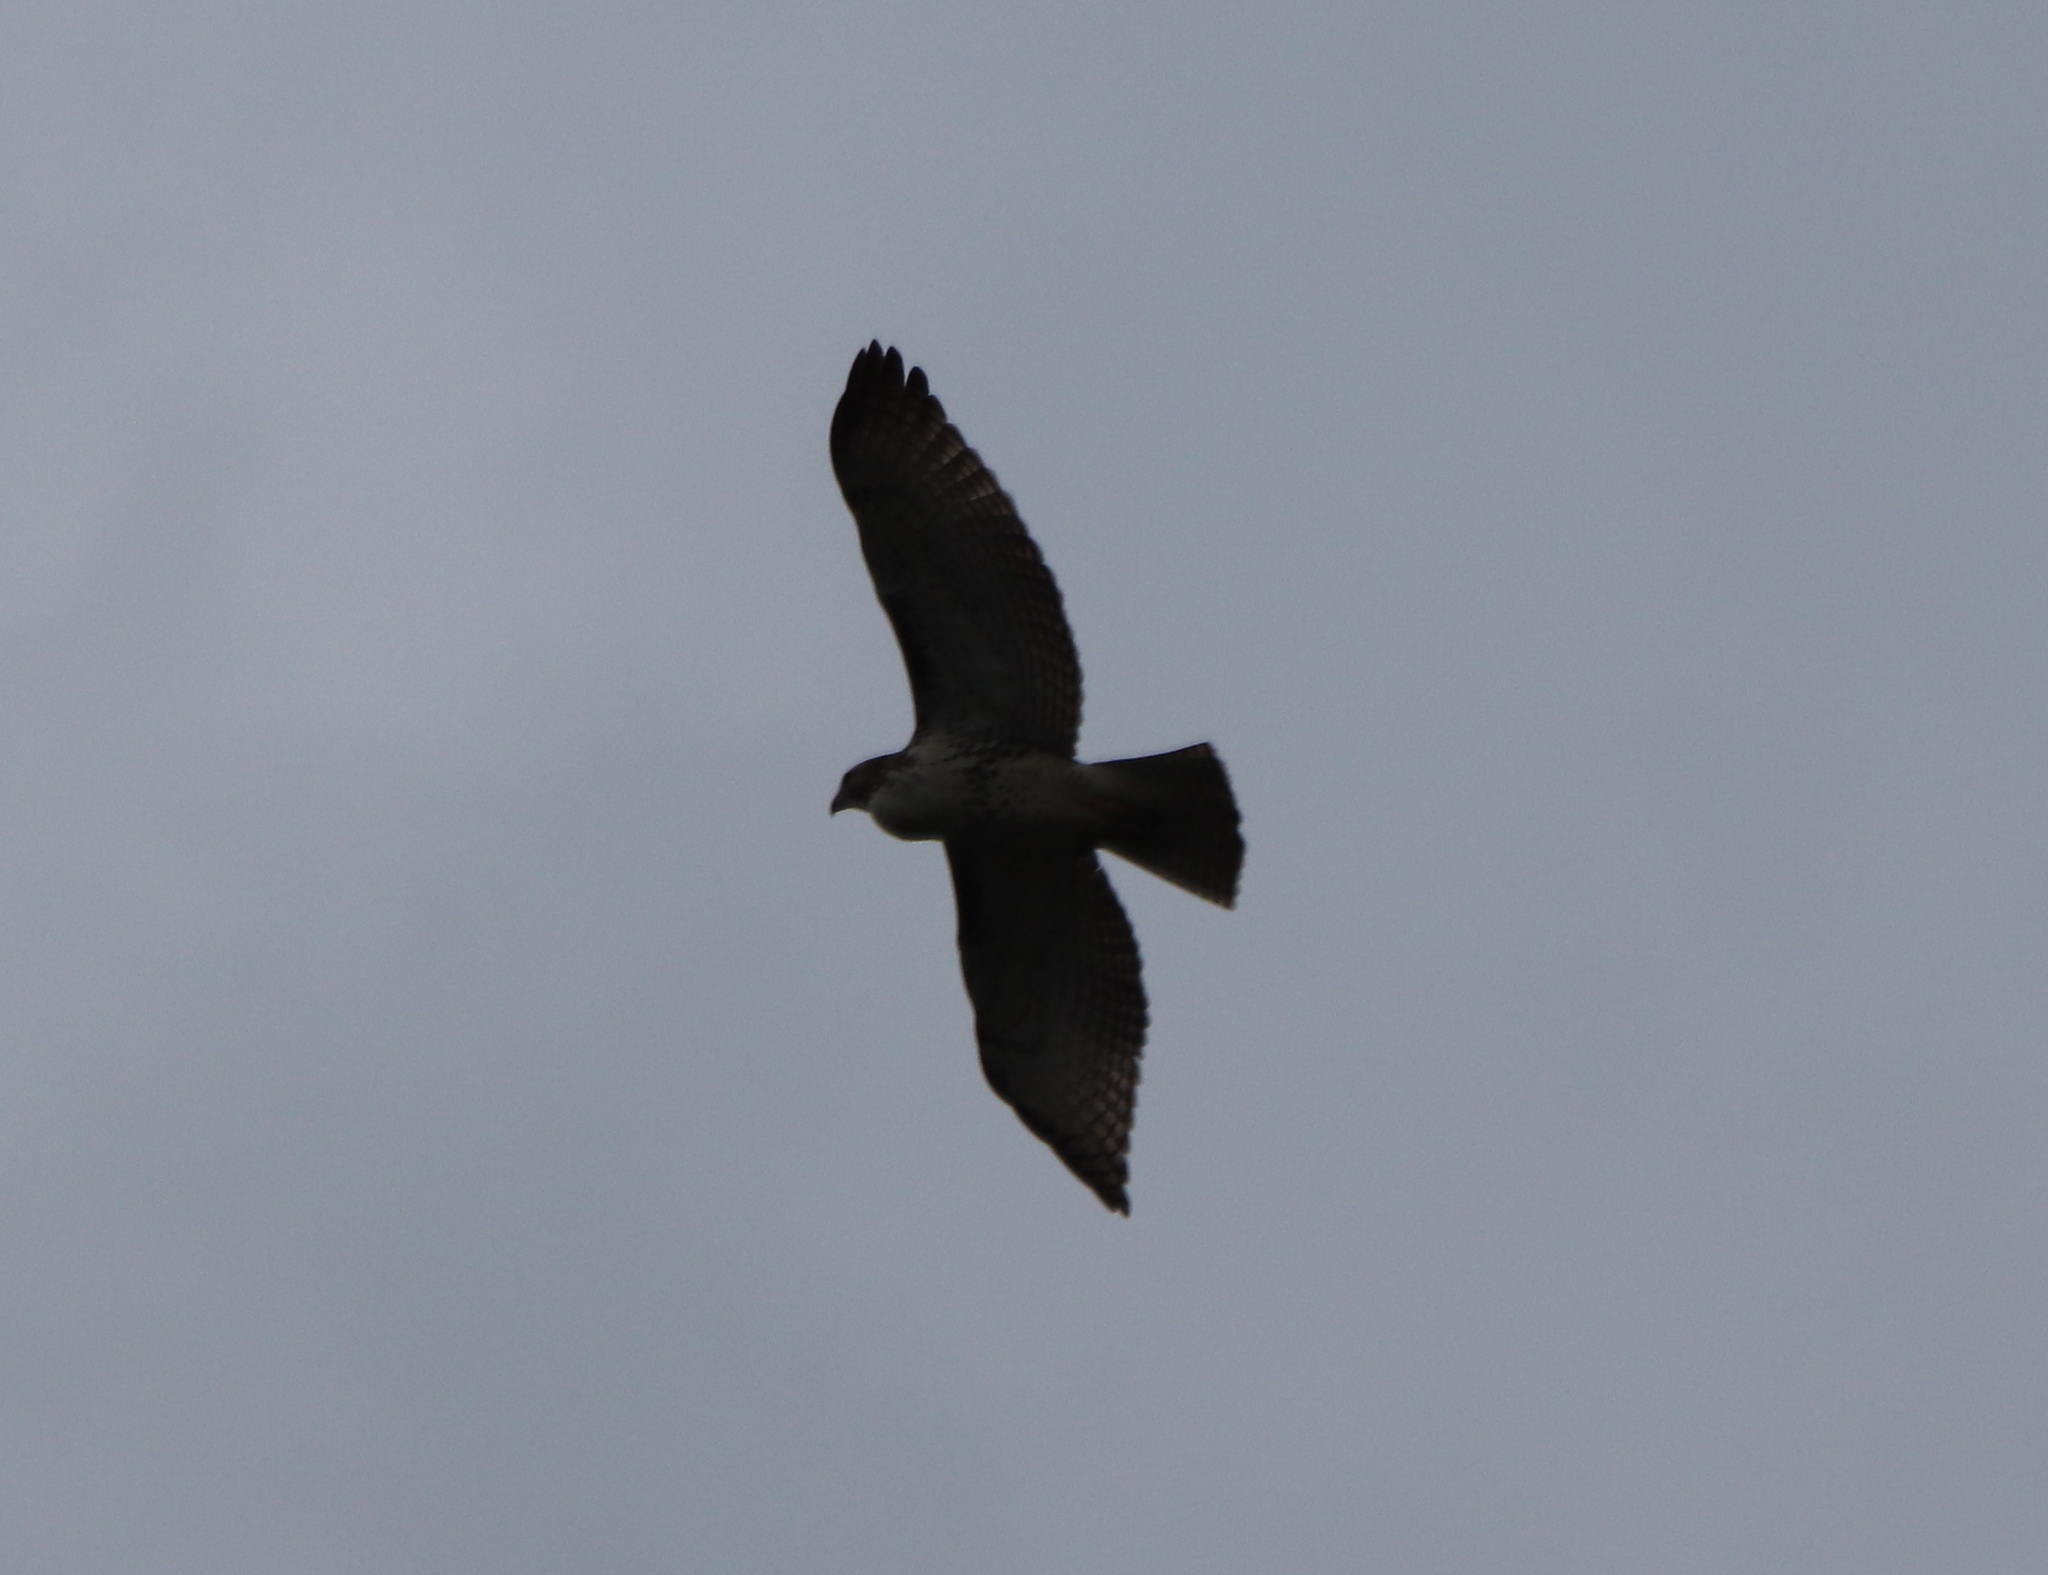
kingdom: Animalia
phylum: Chordata
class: Aves
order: Accipitriformes
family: Accipitridae
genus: Buteo
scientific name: Buteo jamaicensis
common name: Red-tailed hawk
